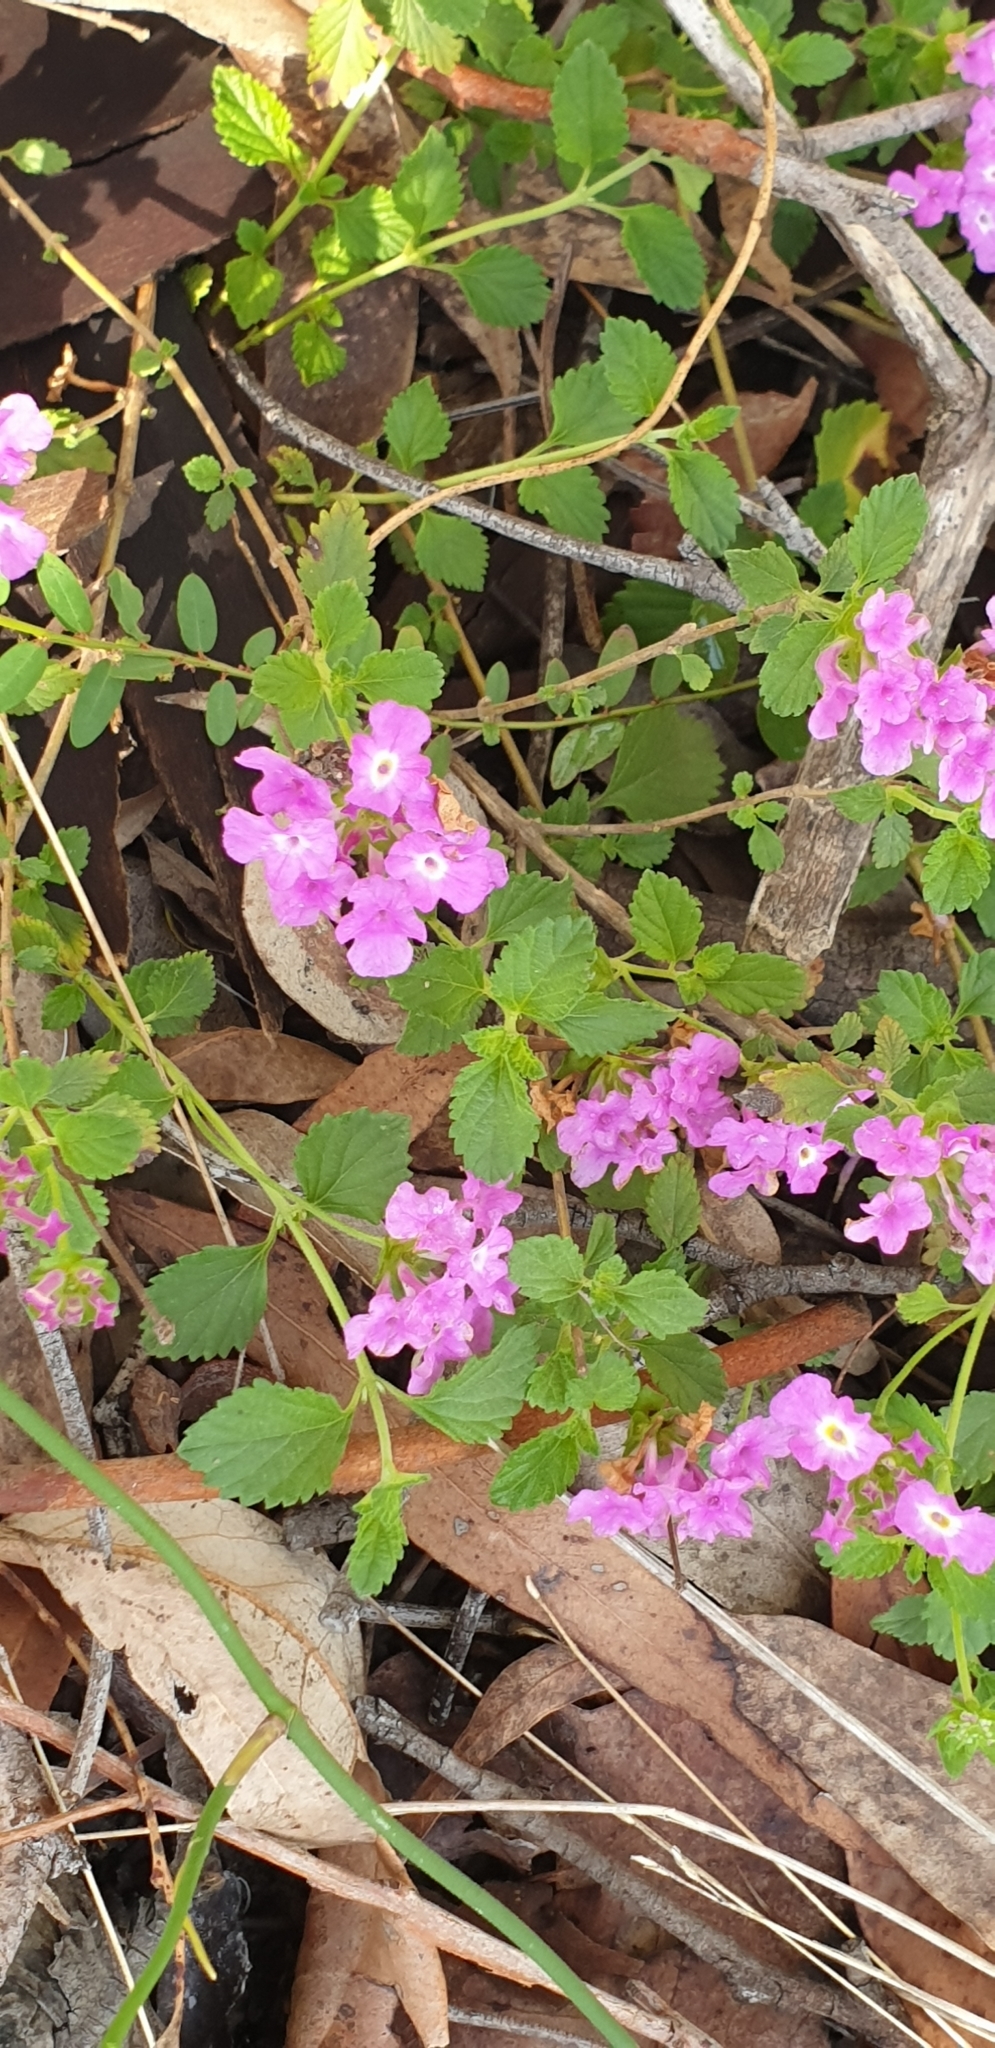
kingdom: Plantae
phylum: Tracheophyta
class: Magnoliopsida
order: Lamiales
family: Verbenaceae
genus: Lantana
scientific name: Lantana montevidensis
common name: Trailing shrubverbena
